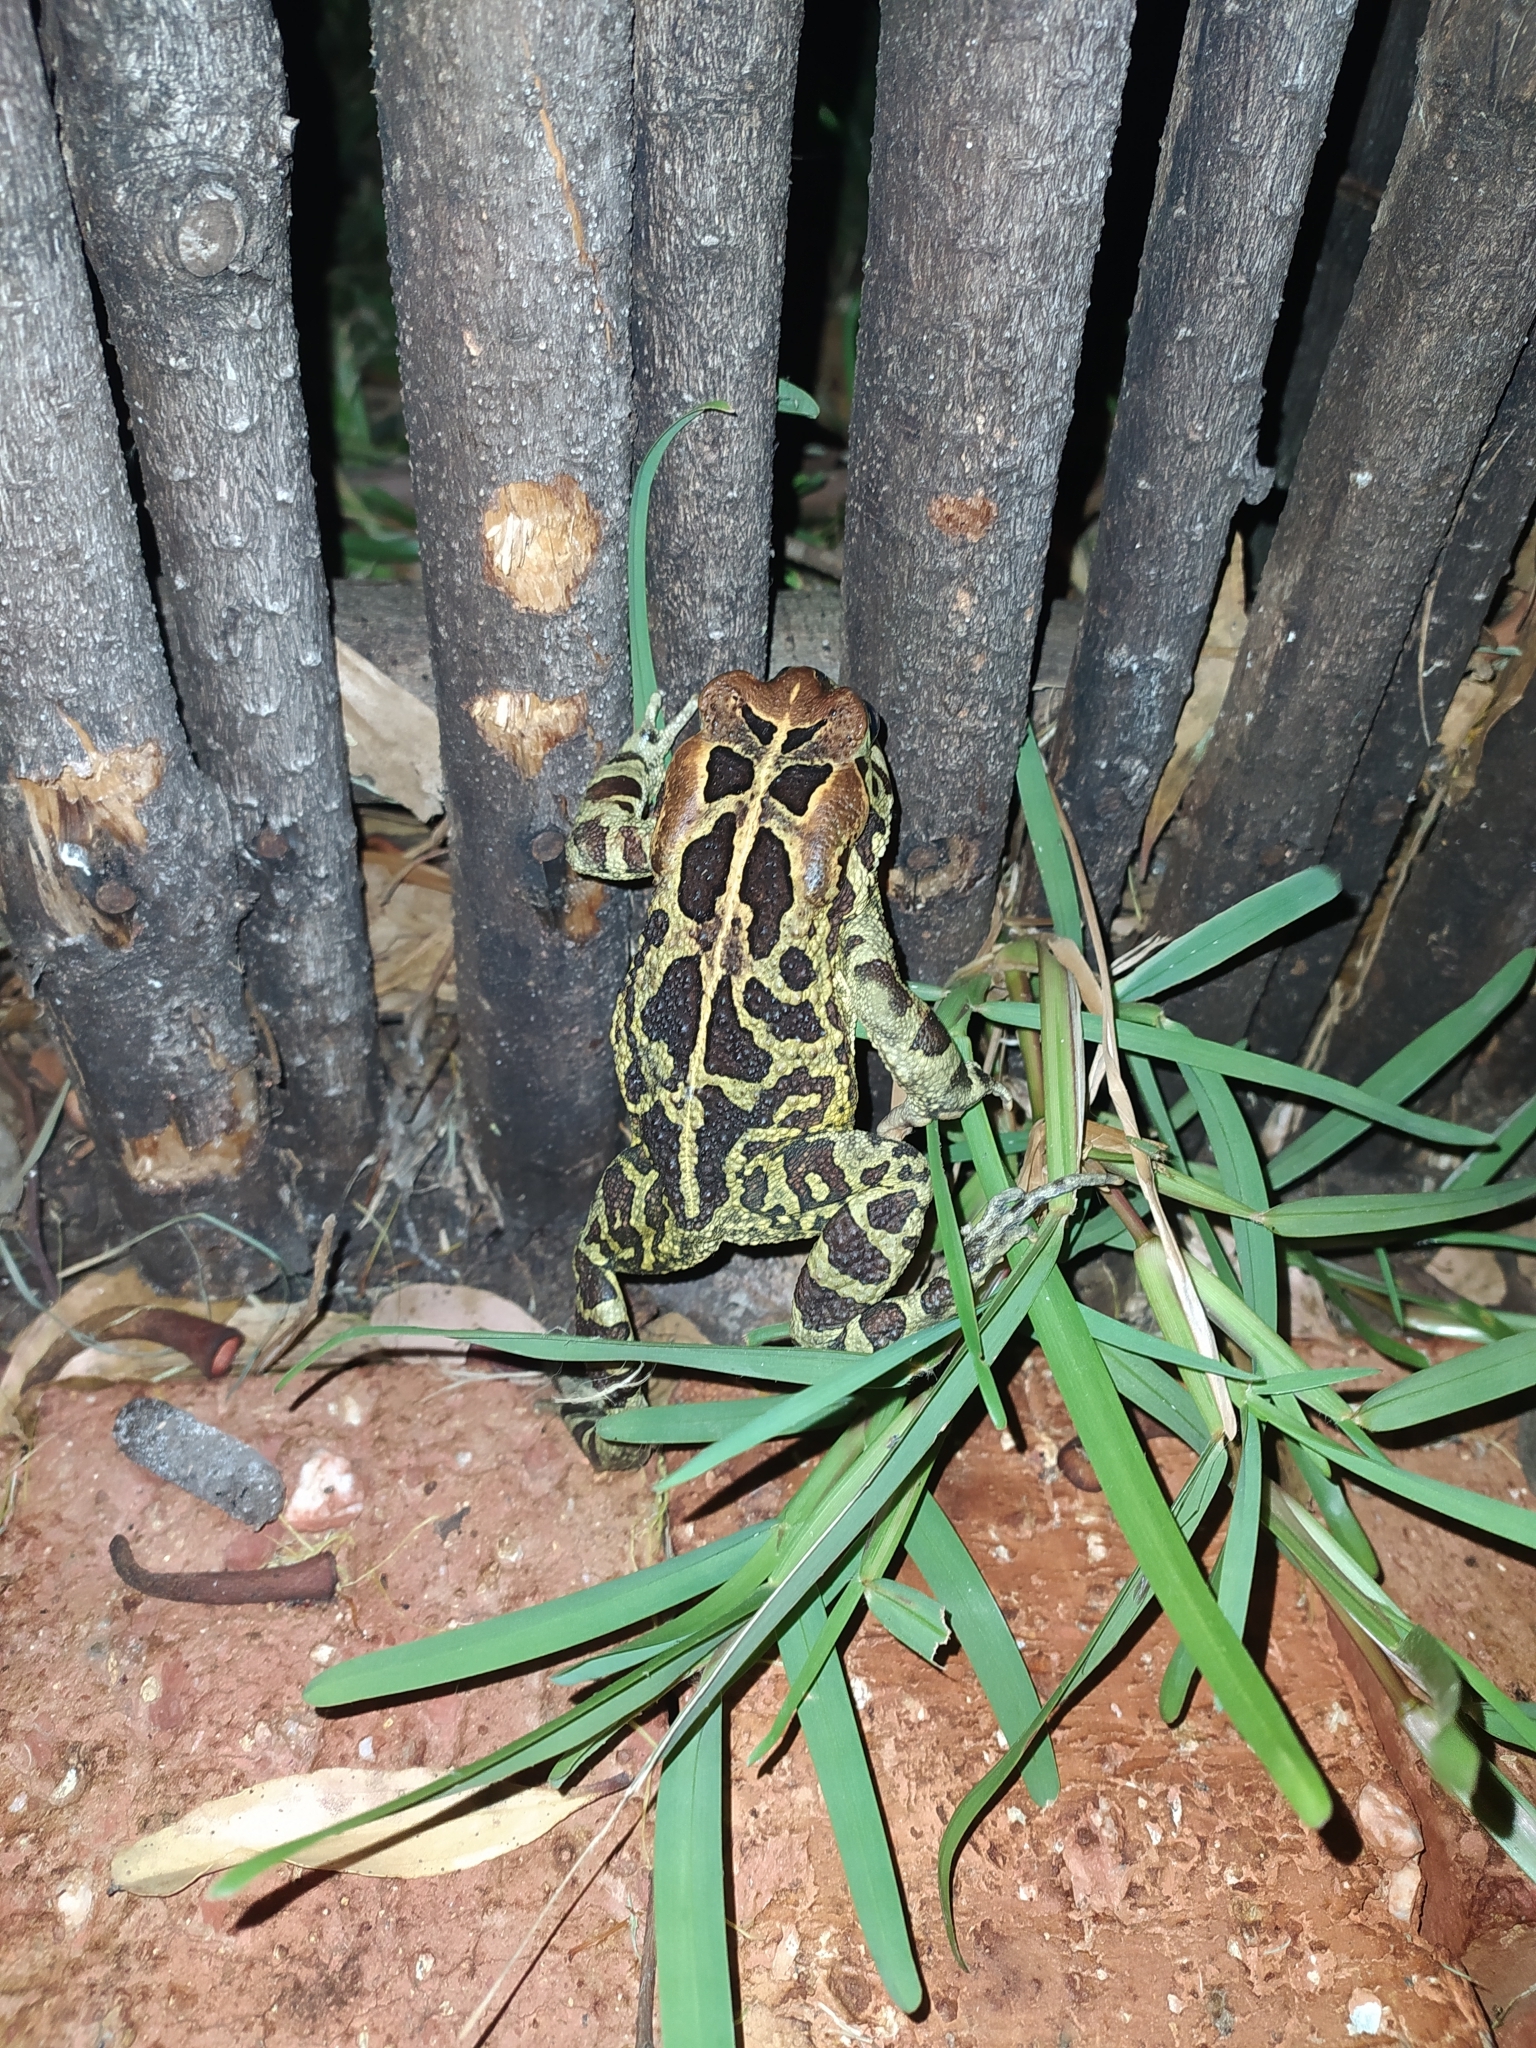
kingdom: Animalia
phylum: Chordata
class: Amphibia
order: Anura
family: Bufonidae
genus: Sclerophrys
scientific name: Sclerophrys pantherina
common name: Panther toad
